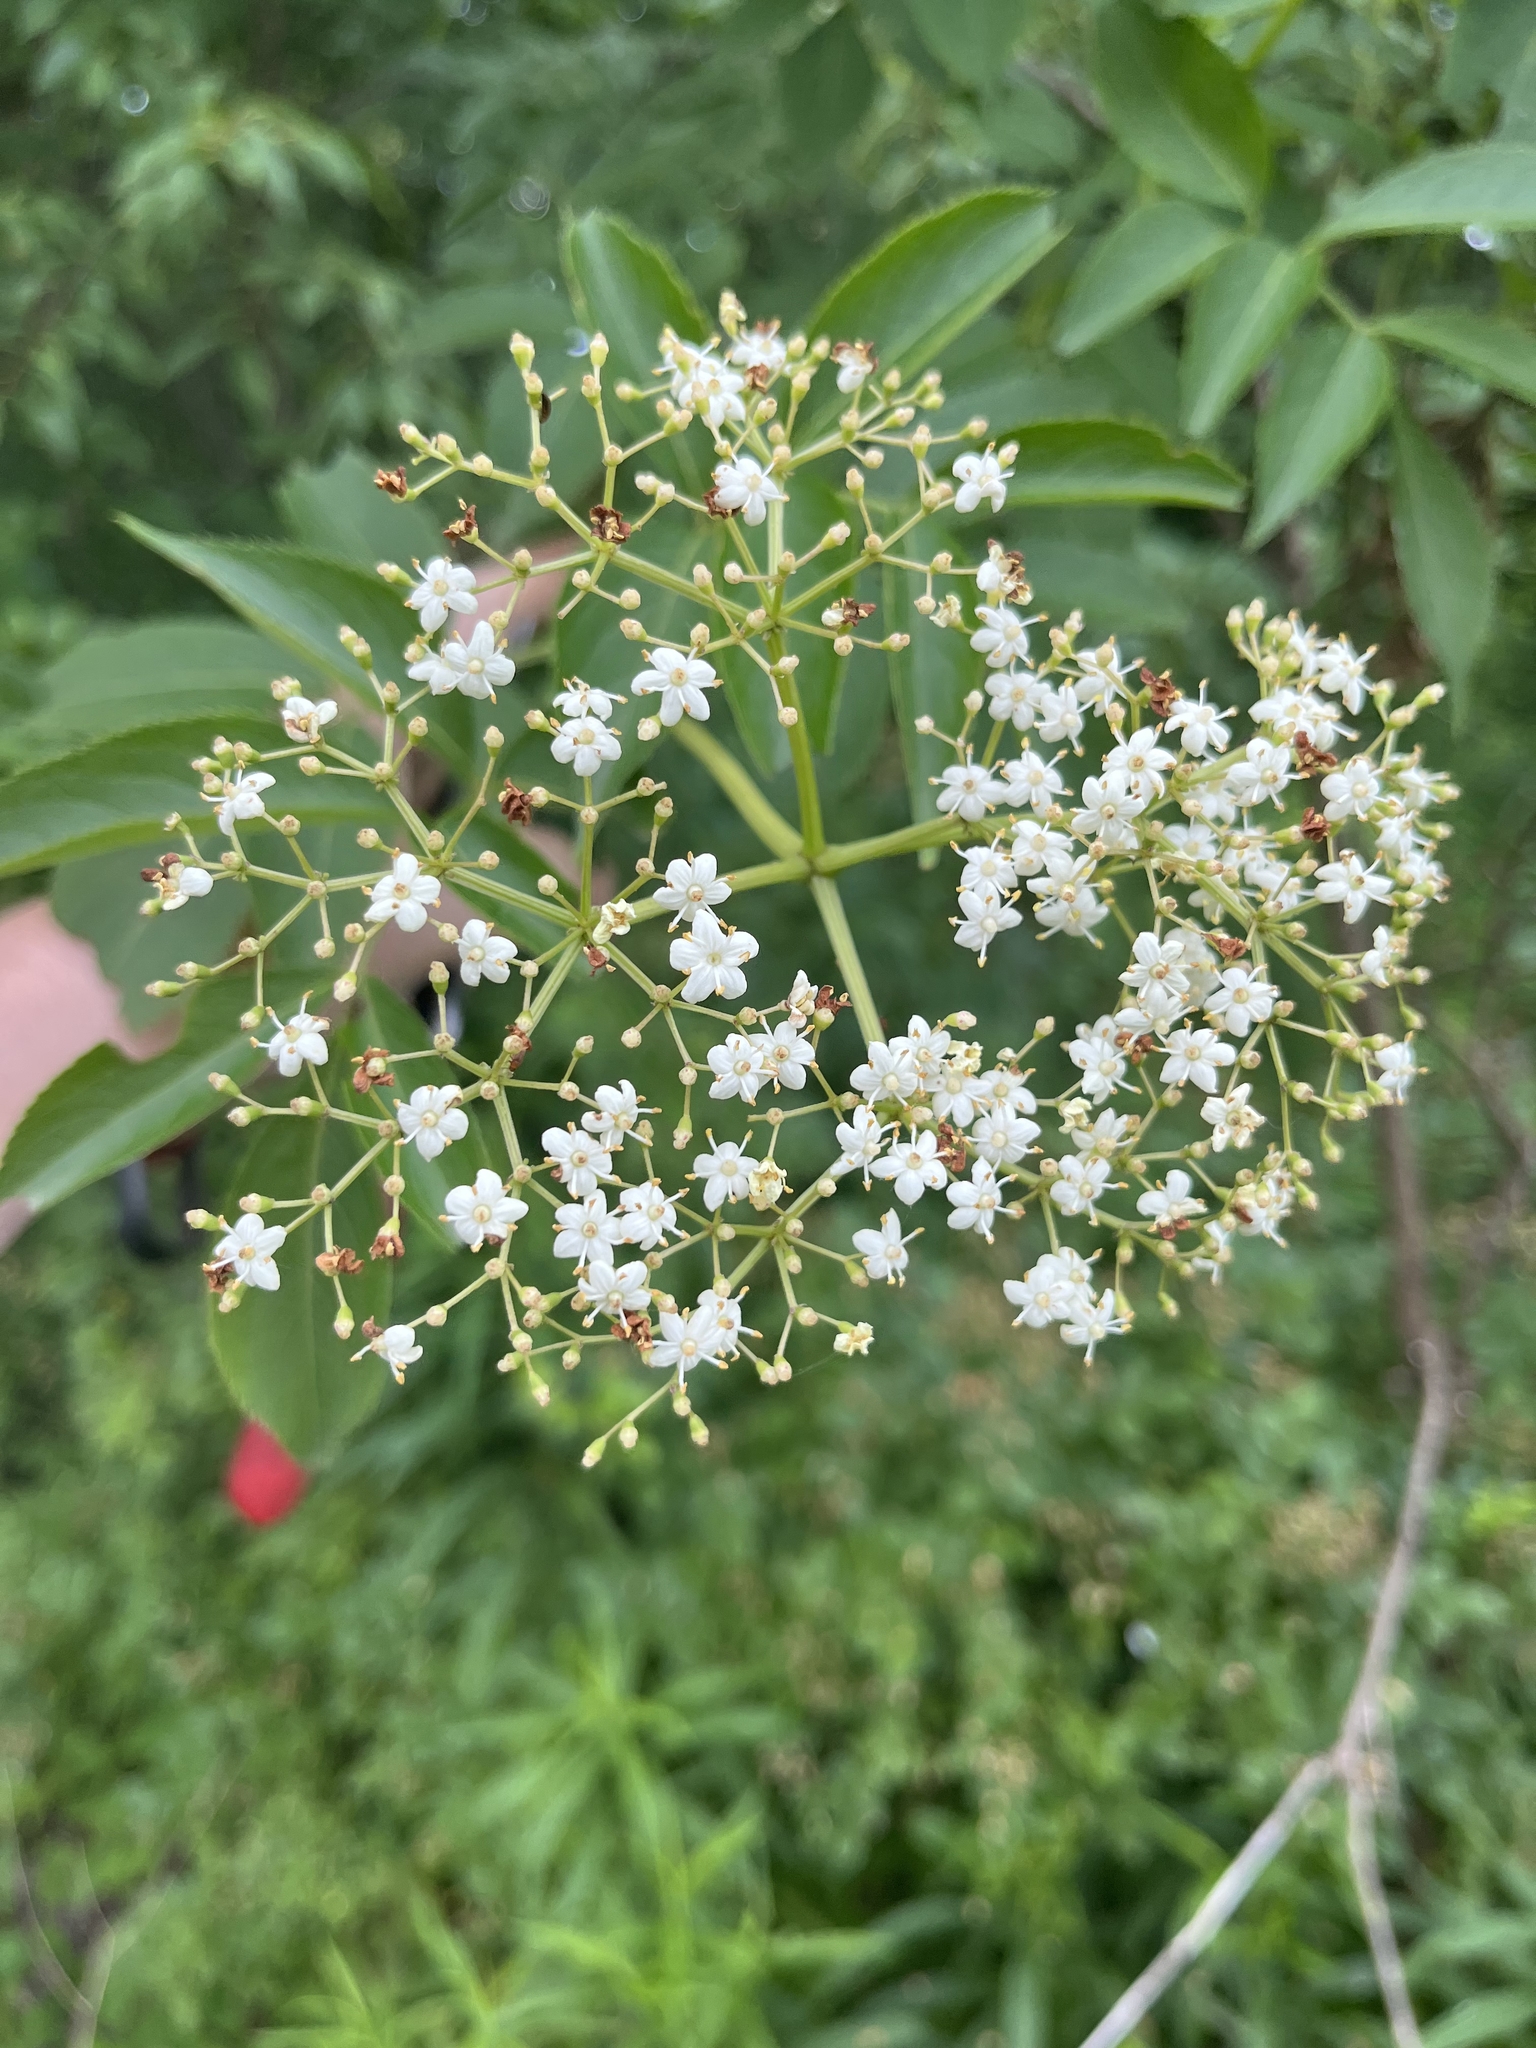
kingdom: Plantae
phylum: Tracheophyta
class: Magnoliopsida
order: Dipsacales
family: Viburnaceae
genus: Sambucus
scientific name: Sambucus canadensis
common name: American elder
